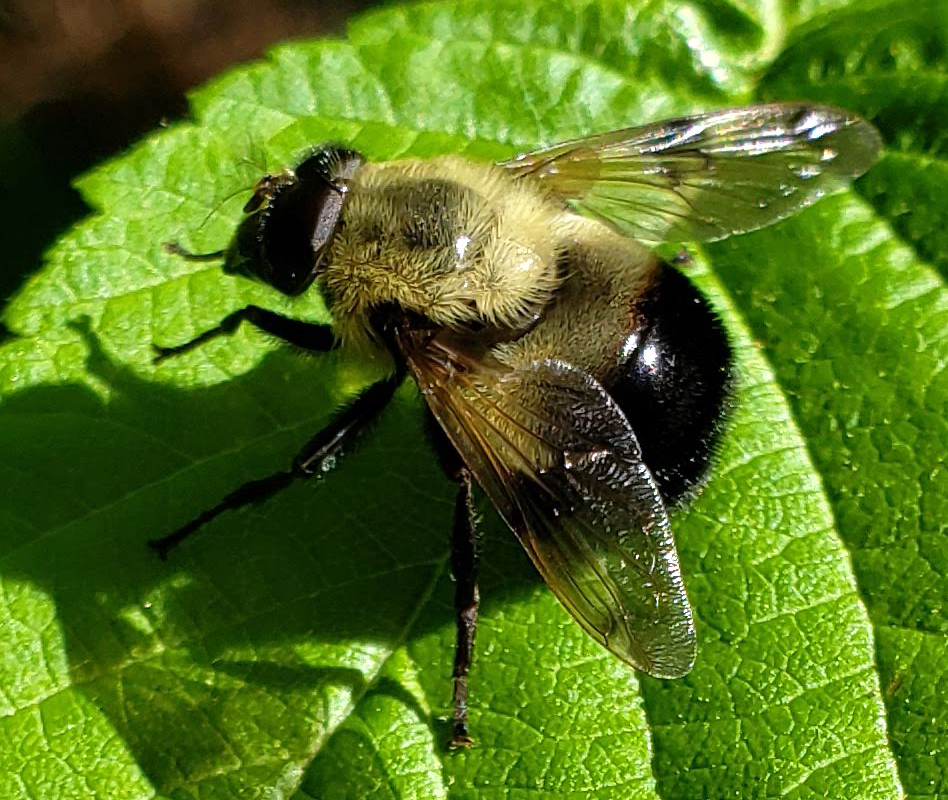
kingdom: Animalia
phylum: Arthropoda
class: Insecta
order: Diptera
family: Syrphidae
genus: Volucella
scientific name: Volucella evecta
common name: Eastern swiftwing
